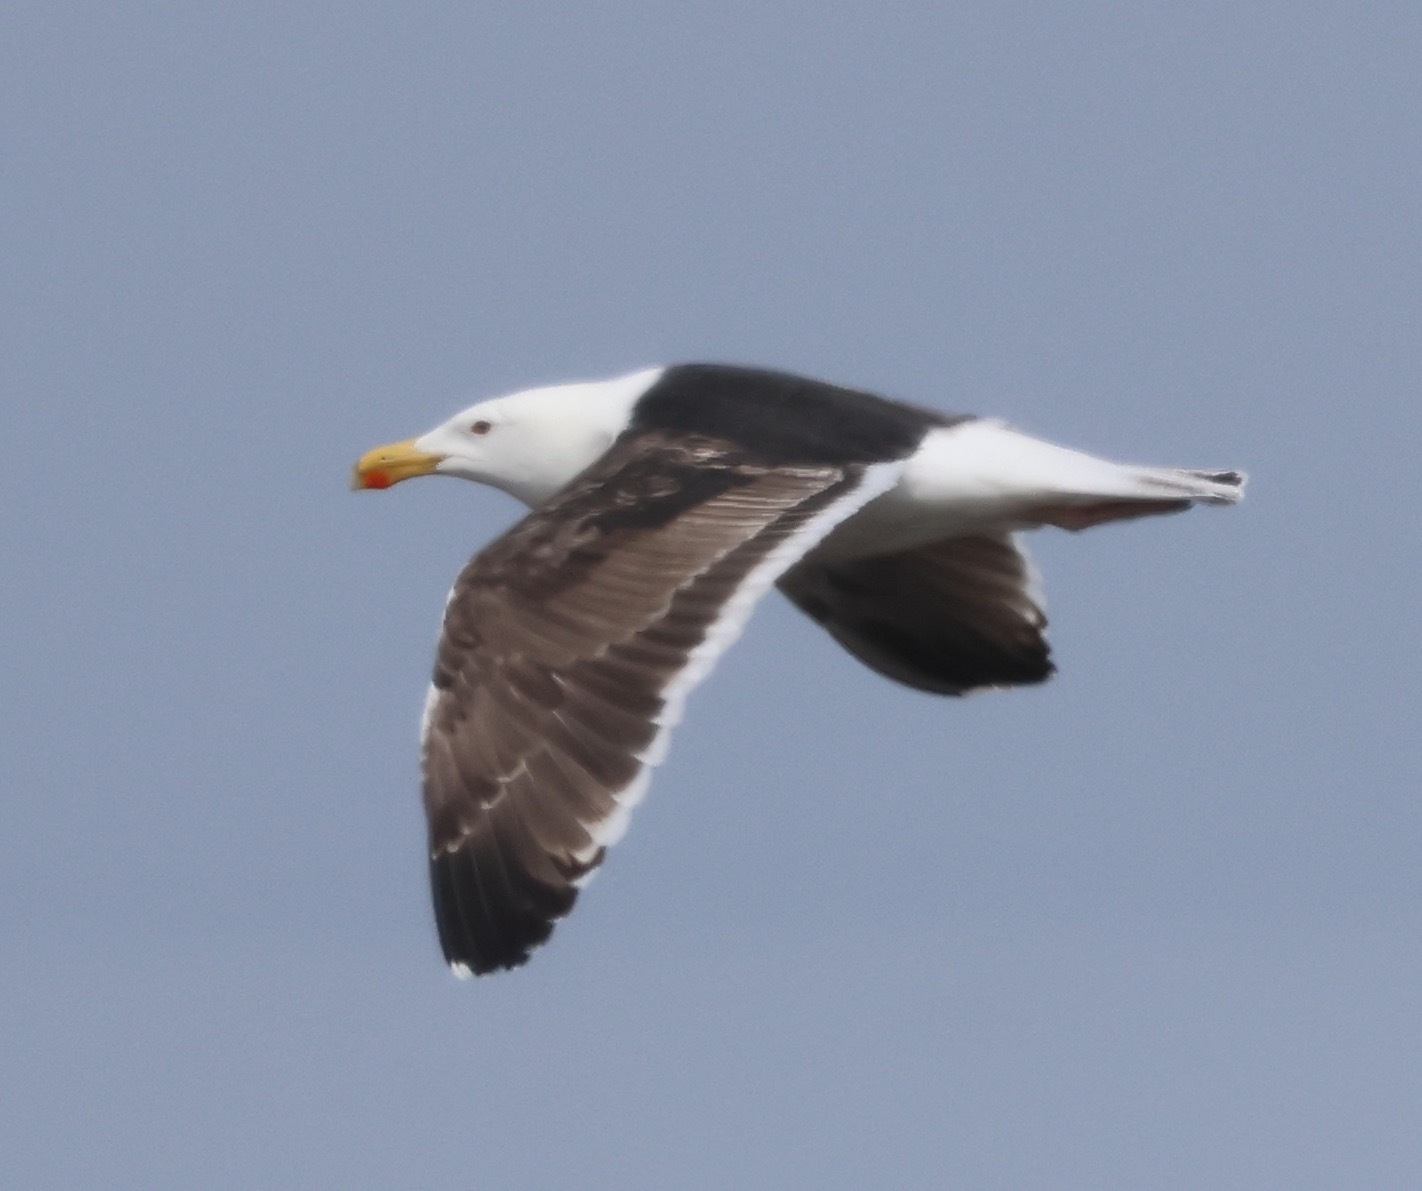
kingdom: Animalia
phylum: Chordata
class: Aves
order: Charadriiformes
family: Laridae
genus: Larus
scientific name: Larus marinus
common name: Great black-backed gull
